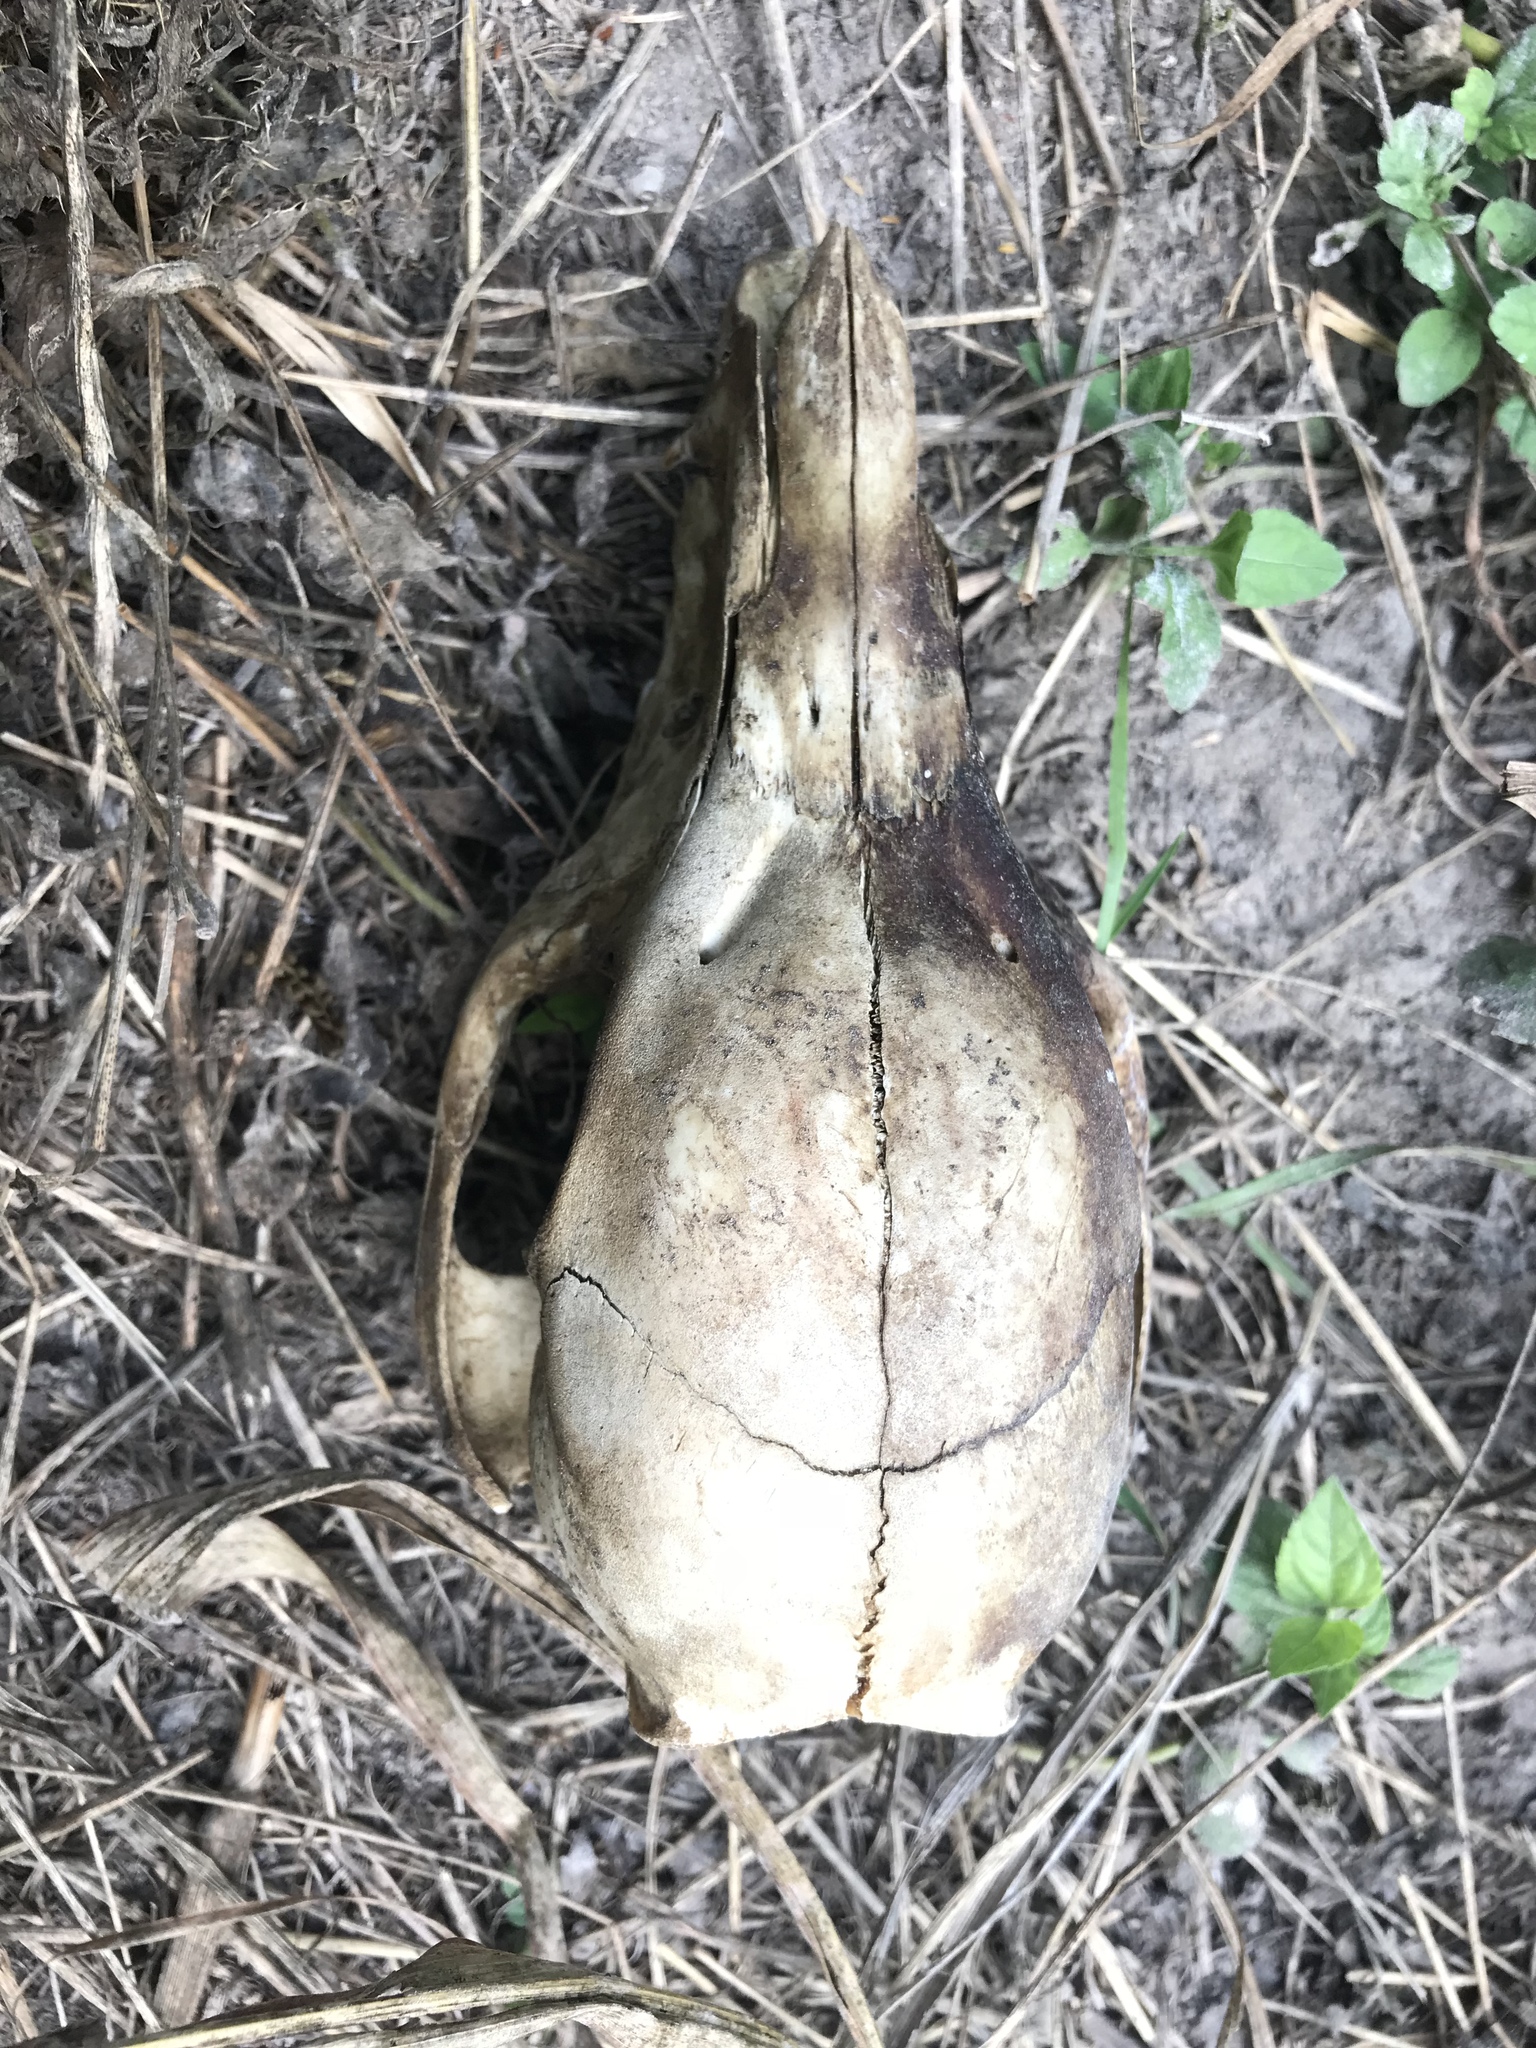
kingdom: Animalia
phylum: Chordata
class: Mammalia
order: Artiodactyla
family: Suidae
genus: Sus
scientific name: Sus scrofa
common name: Wild boar
